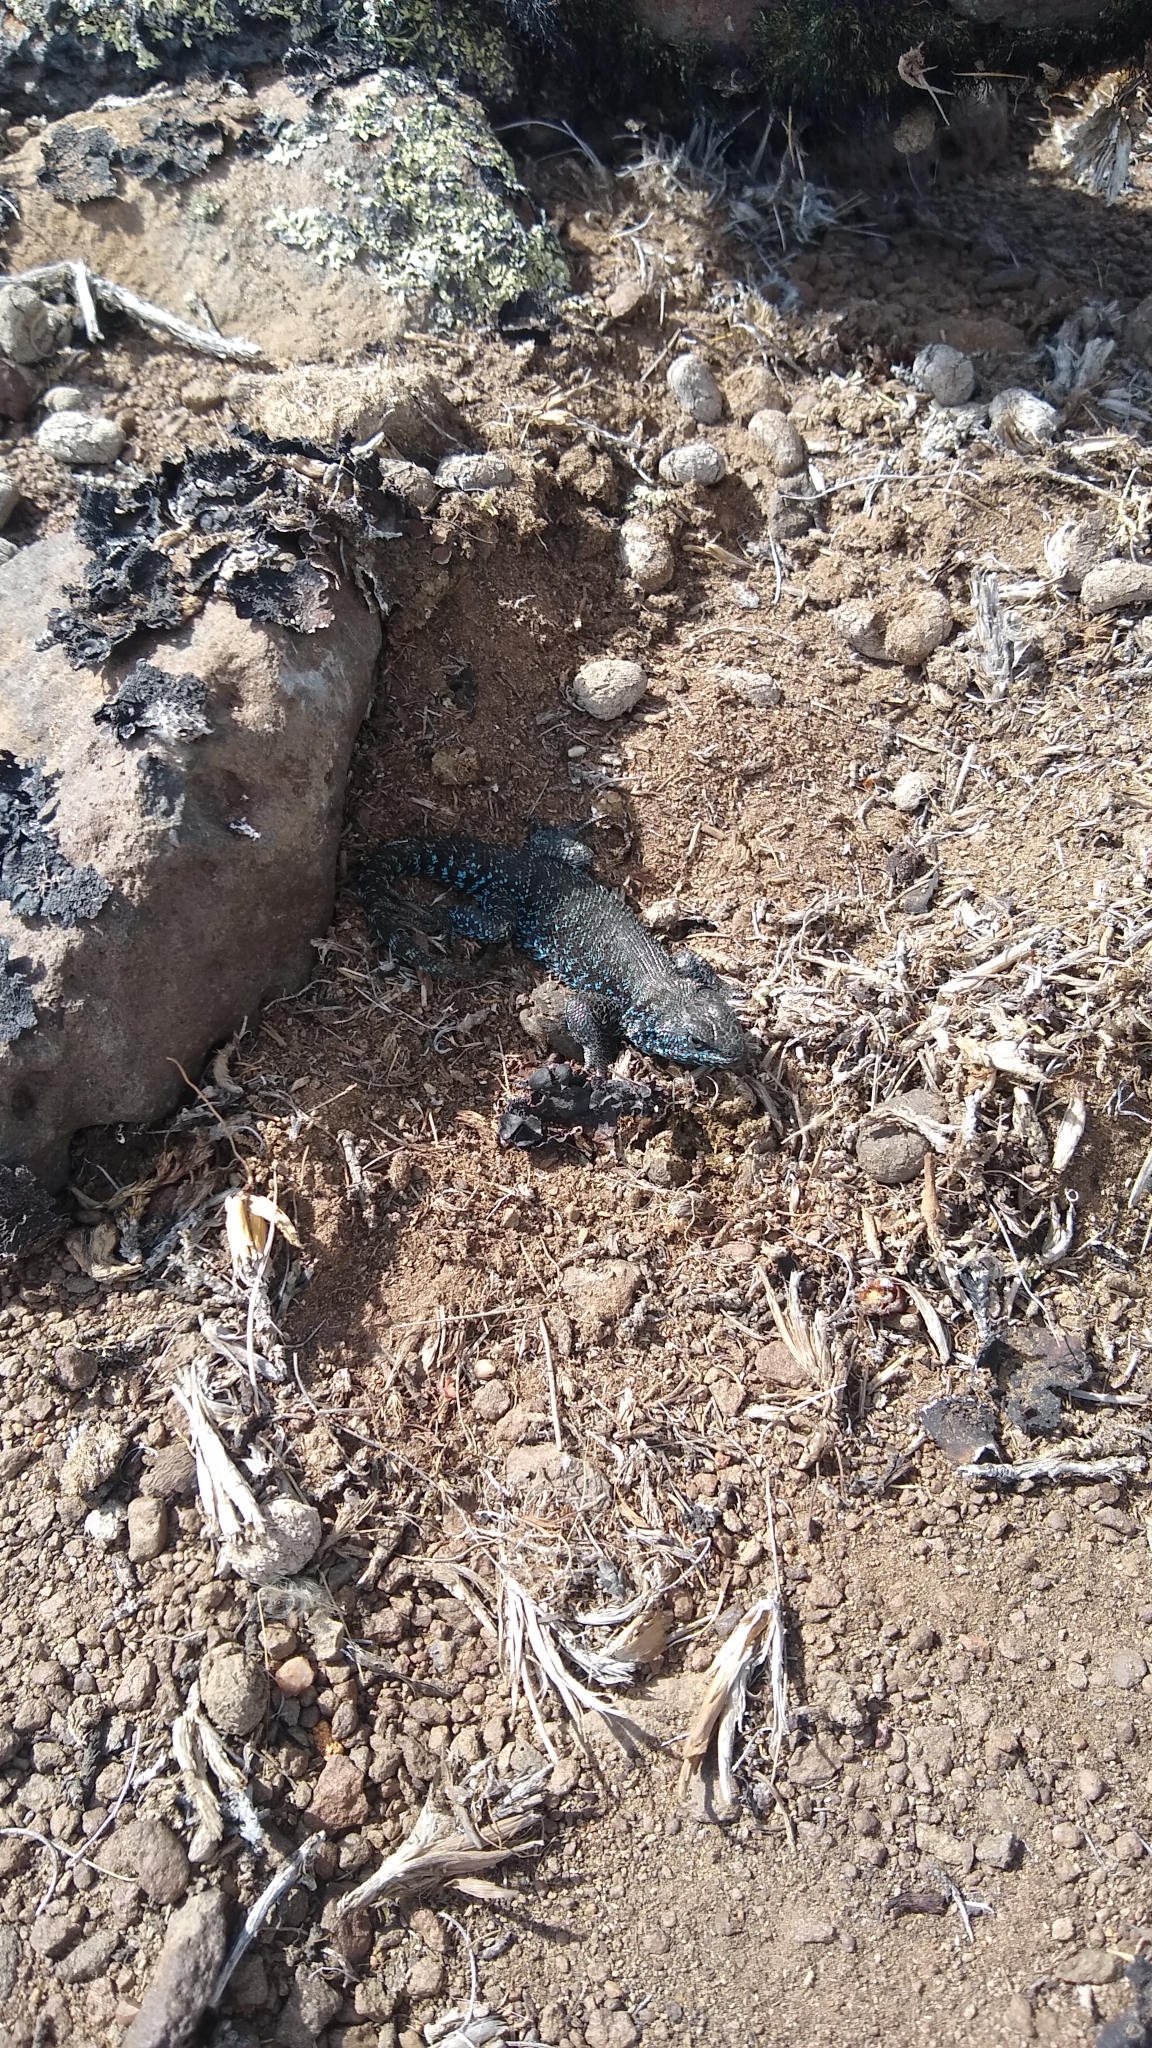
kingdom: Animalia
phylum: Chordata
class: Squamata
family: Liolaemidae
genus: Liolaemus
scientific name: Liolaemus silvanae
